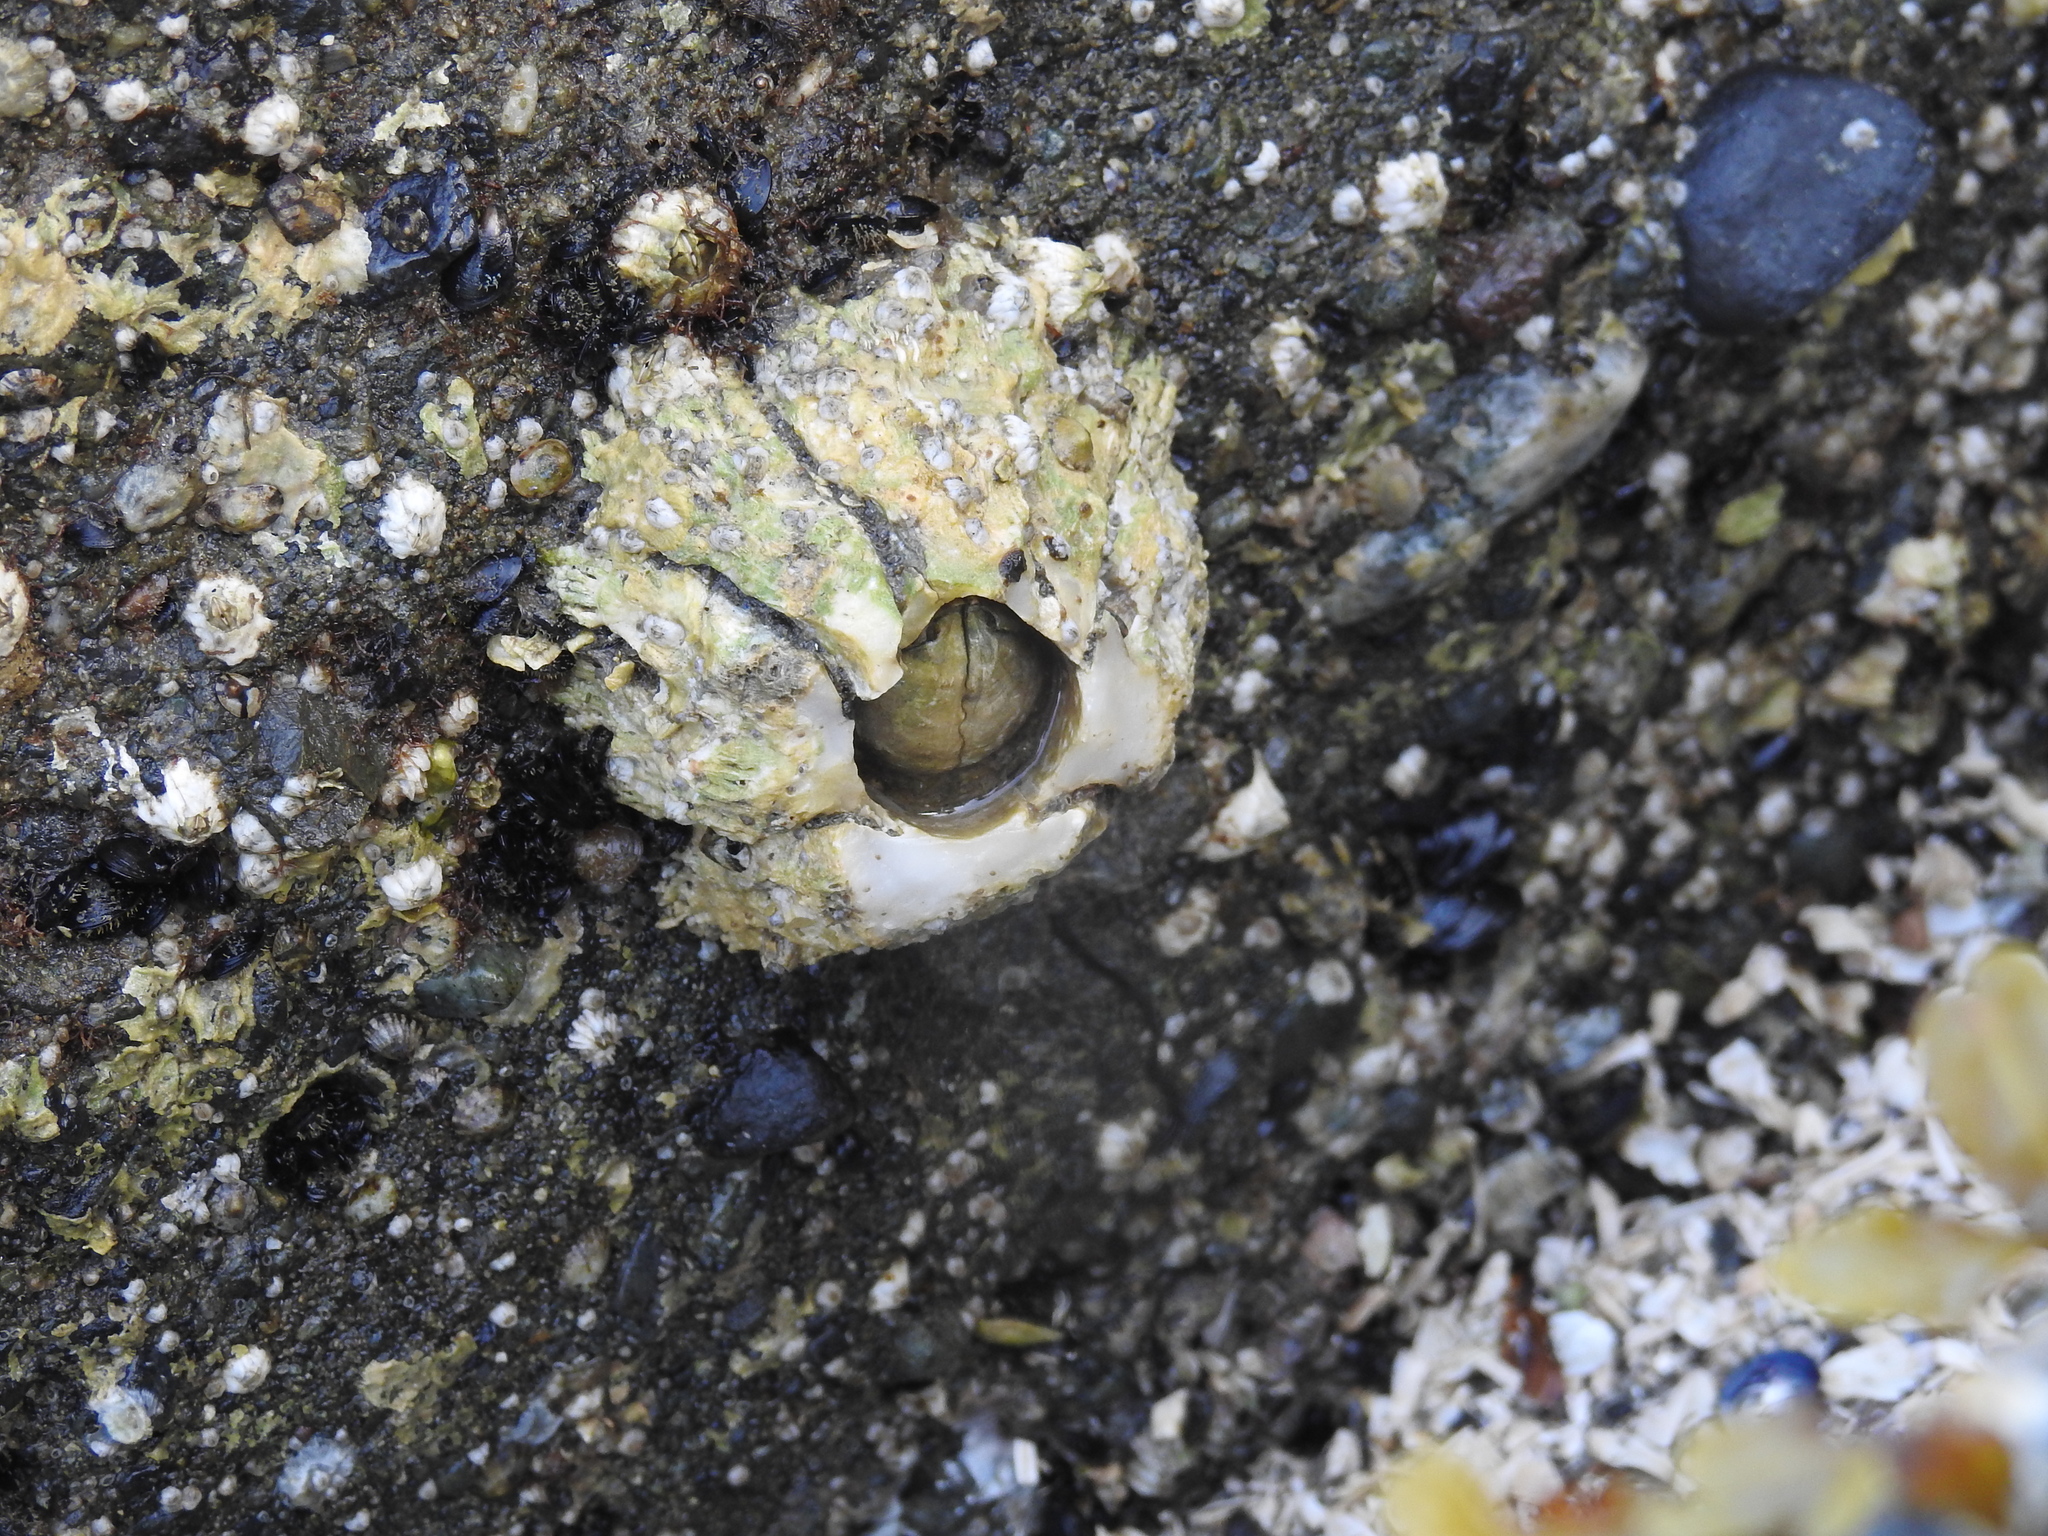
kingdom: Animalia
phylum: Arthropoda
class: Maxillopoda
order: Sessilia
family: Archaeobalanidae
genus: Semibalanus
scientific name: Semibalanus cariosus
